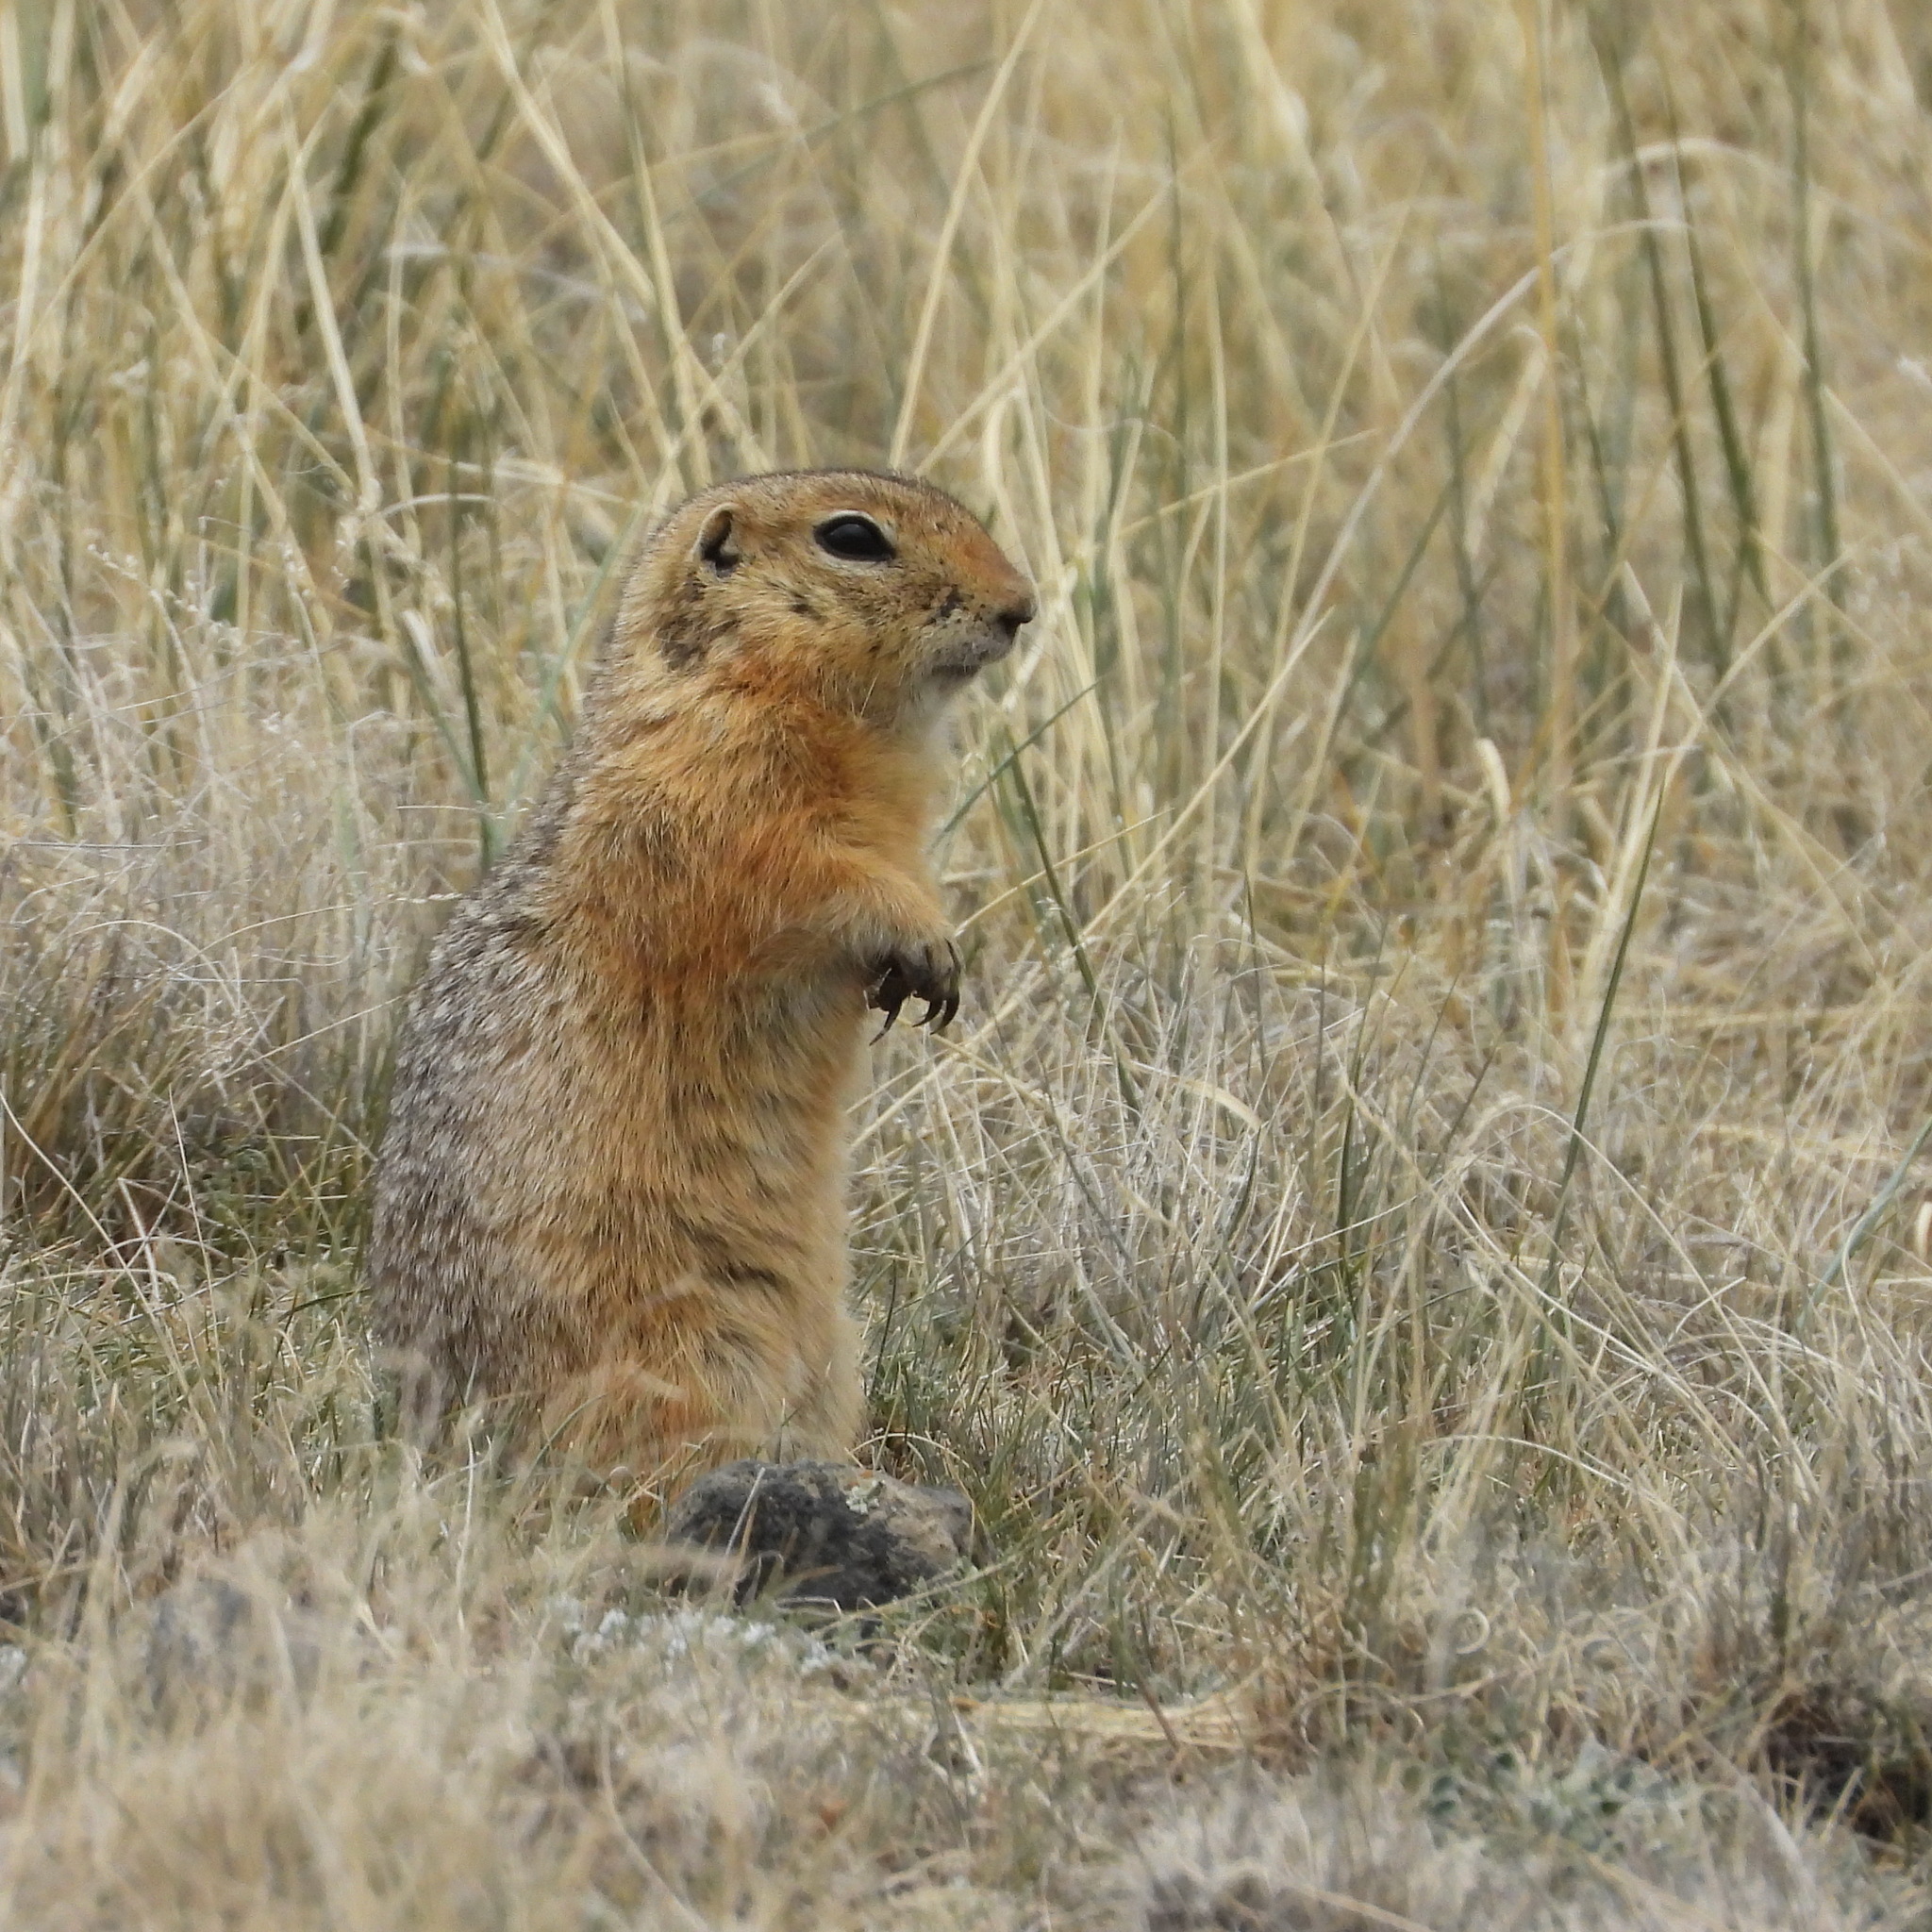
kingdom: Animalia
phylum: Chordata
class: Mammalia
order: Rodentia
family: Sciuridae
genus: Urocitellus
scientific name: Urocitellus undulatus
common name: Long-tailed ground squirrel
